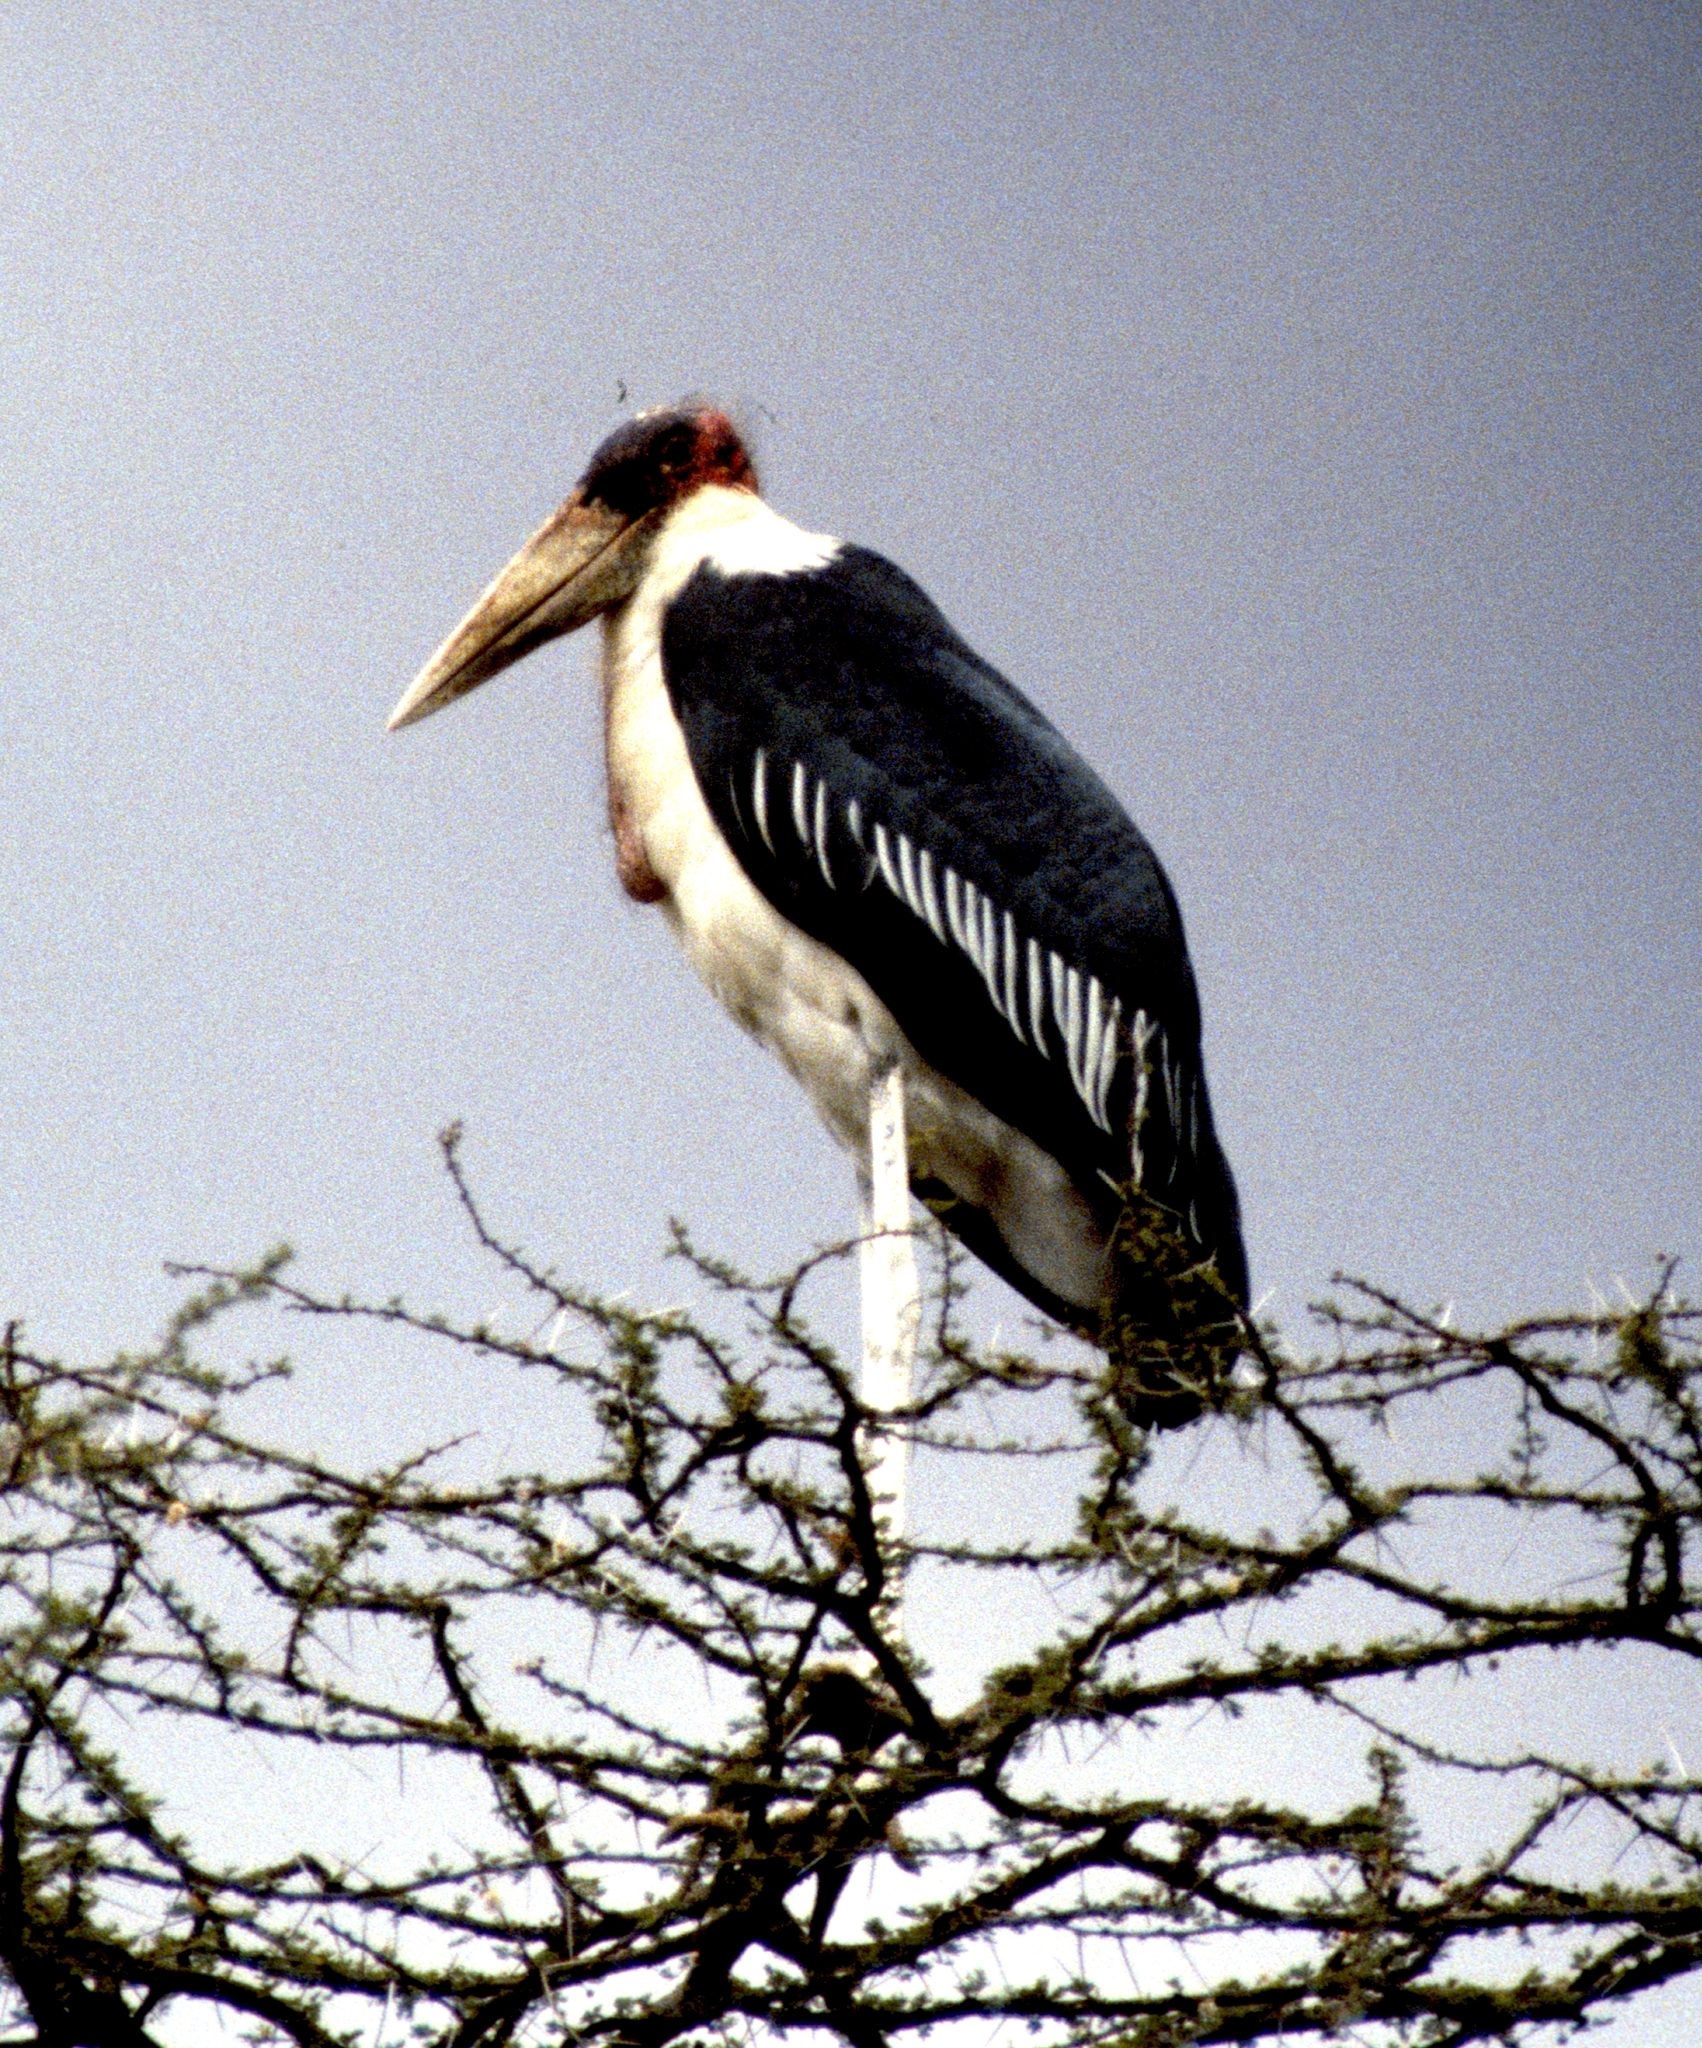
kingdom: Animalia
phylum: Chordata
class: Aves
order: Ciconiiformes
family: Ciconiidae
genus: Leptoptilos
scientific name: Leptoptilos crumenifer
